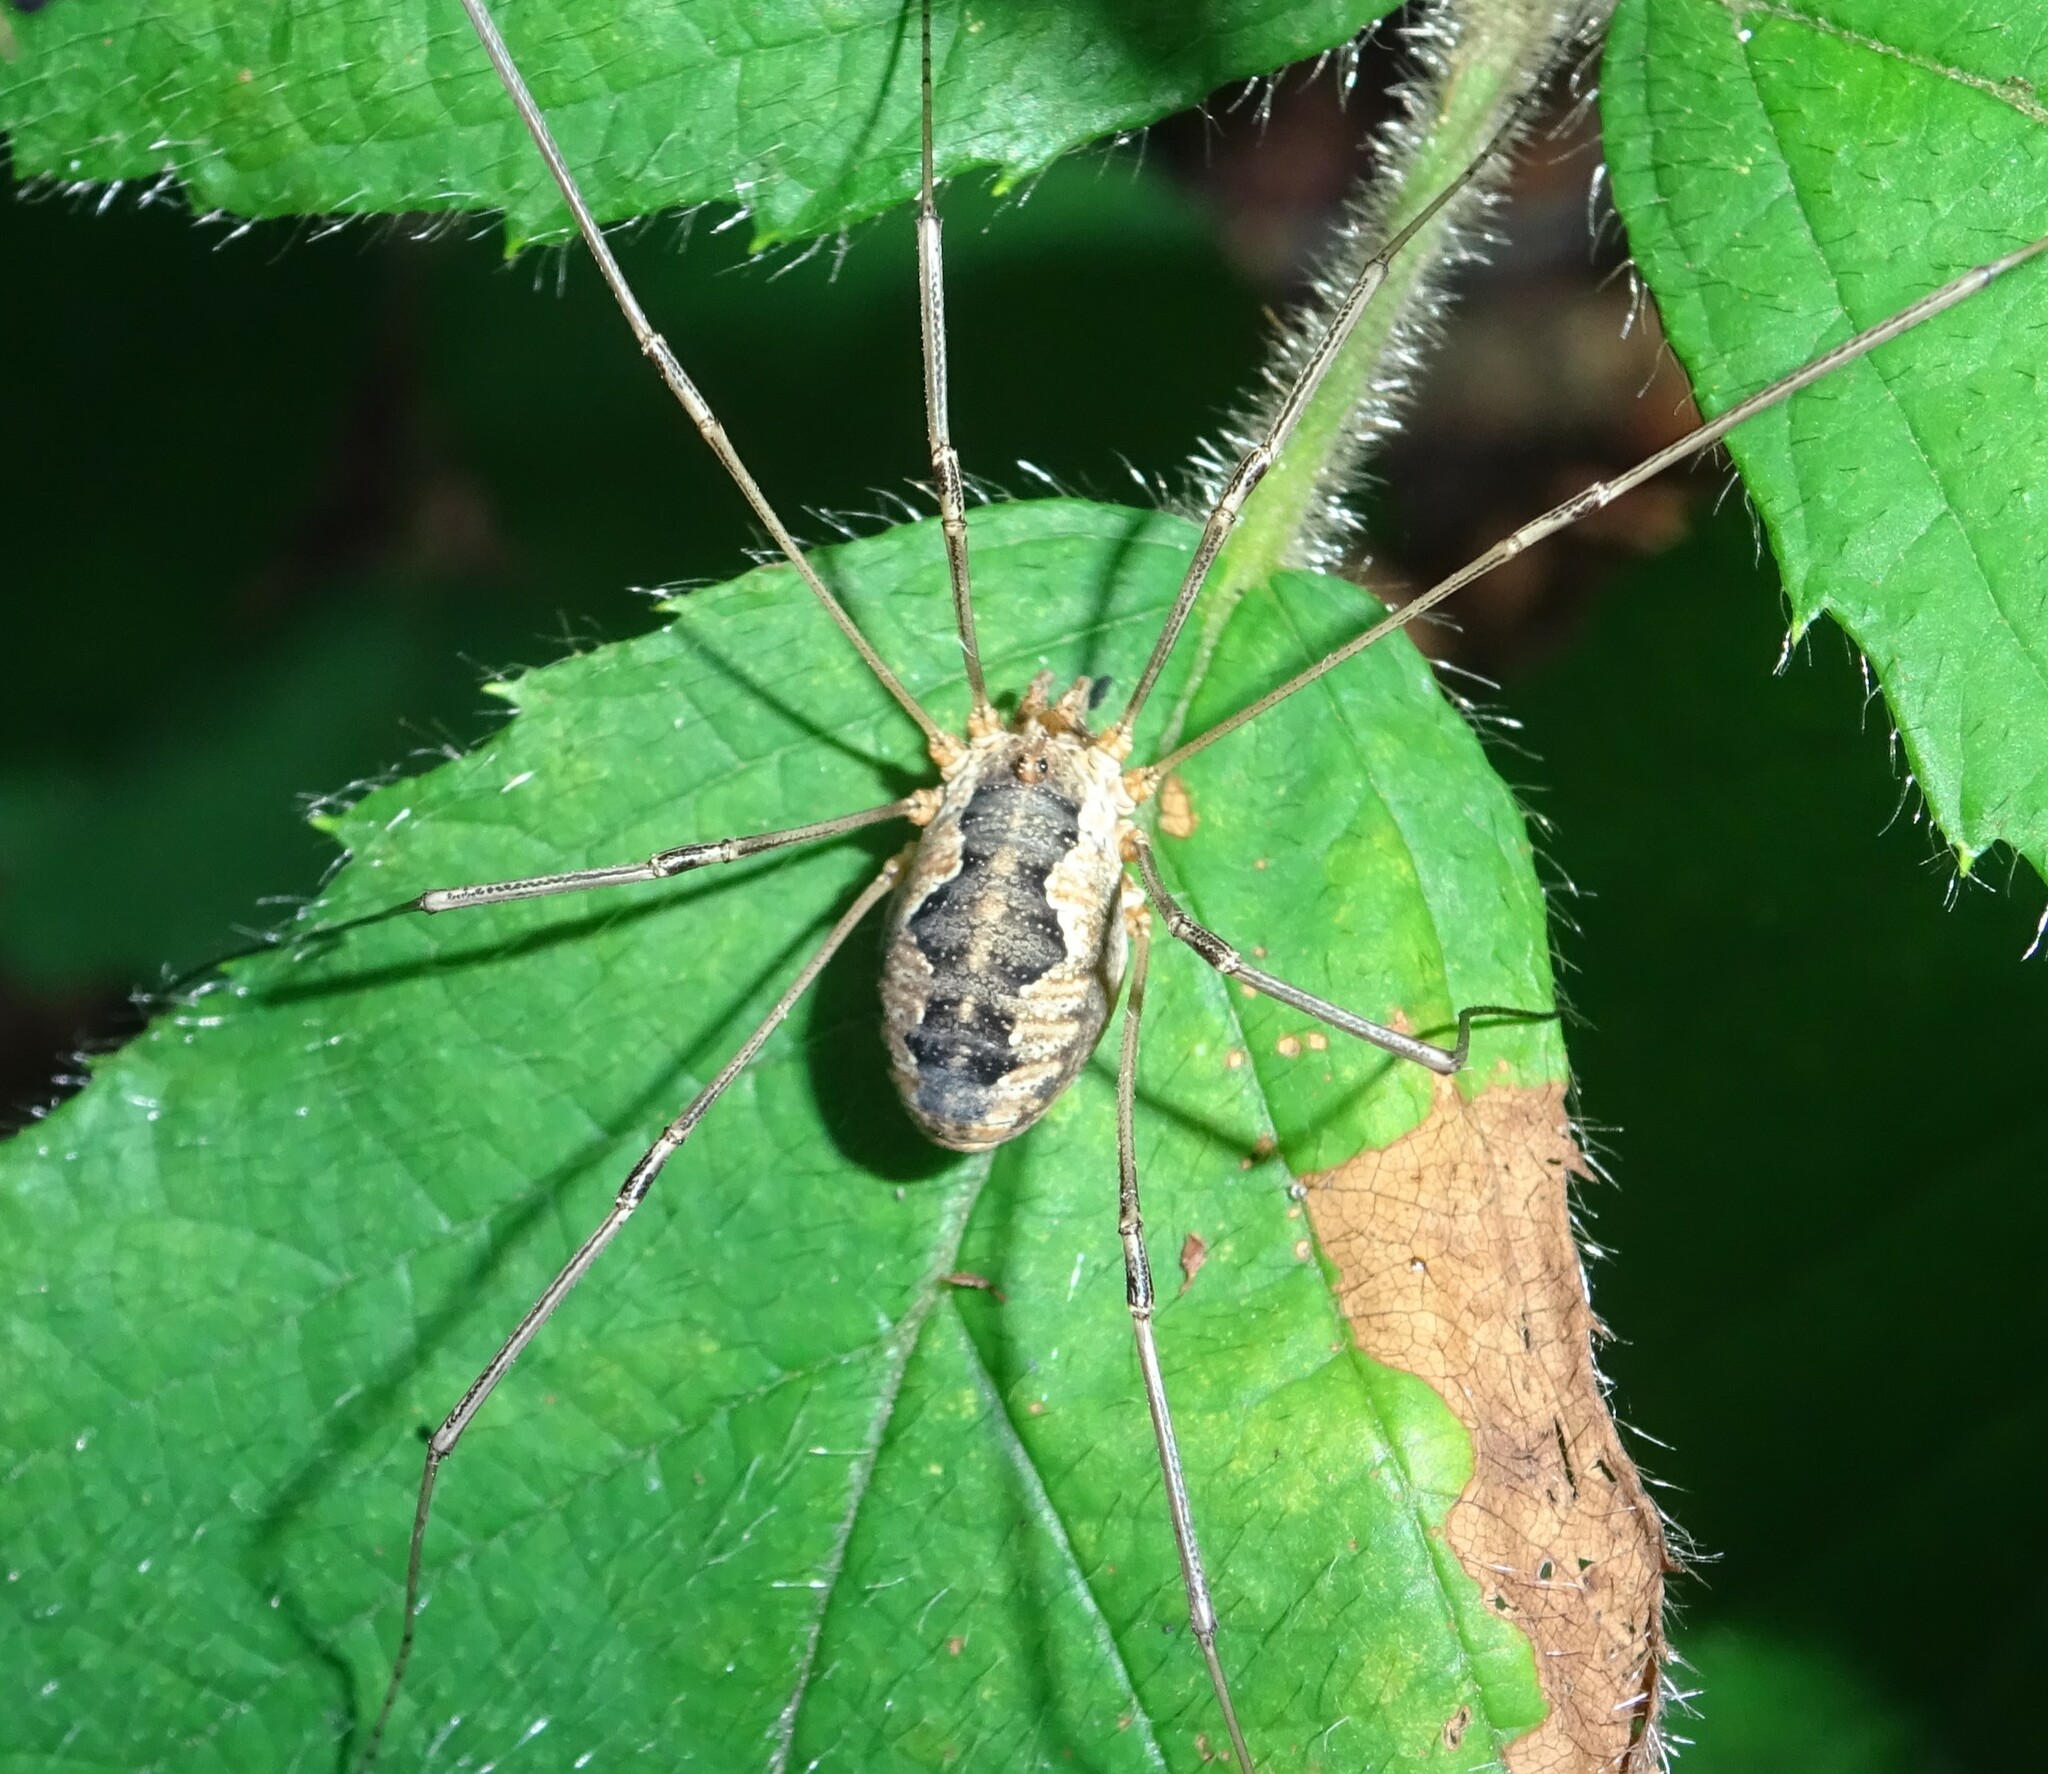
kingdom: Animalia
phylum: Arthropoda
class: Arachnida
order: Opiliones
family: Phalangiidae
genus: Phalangium
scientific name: Phalangium opilio
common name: Daddy longleg
